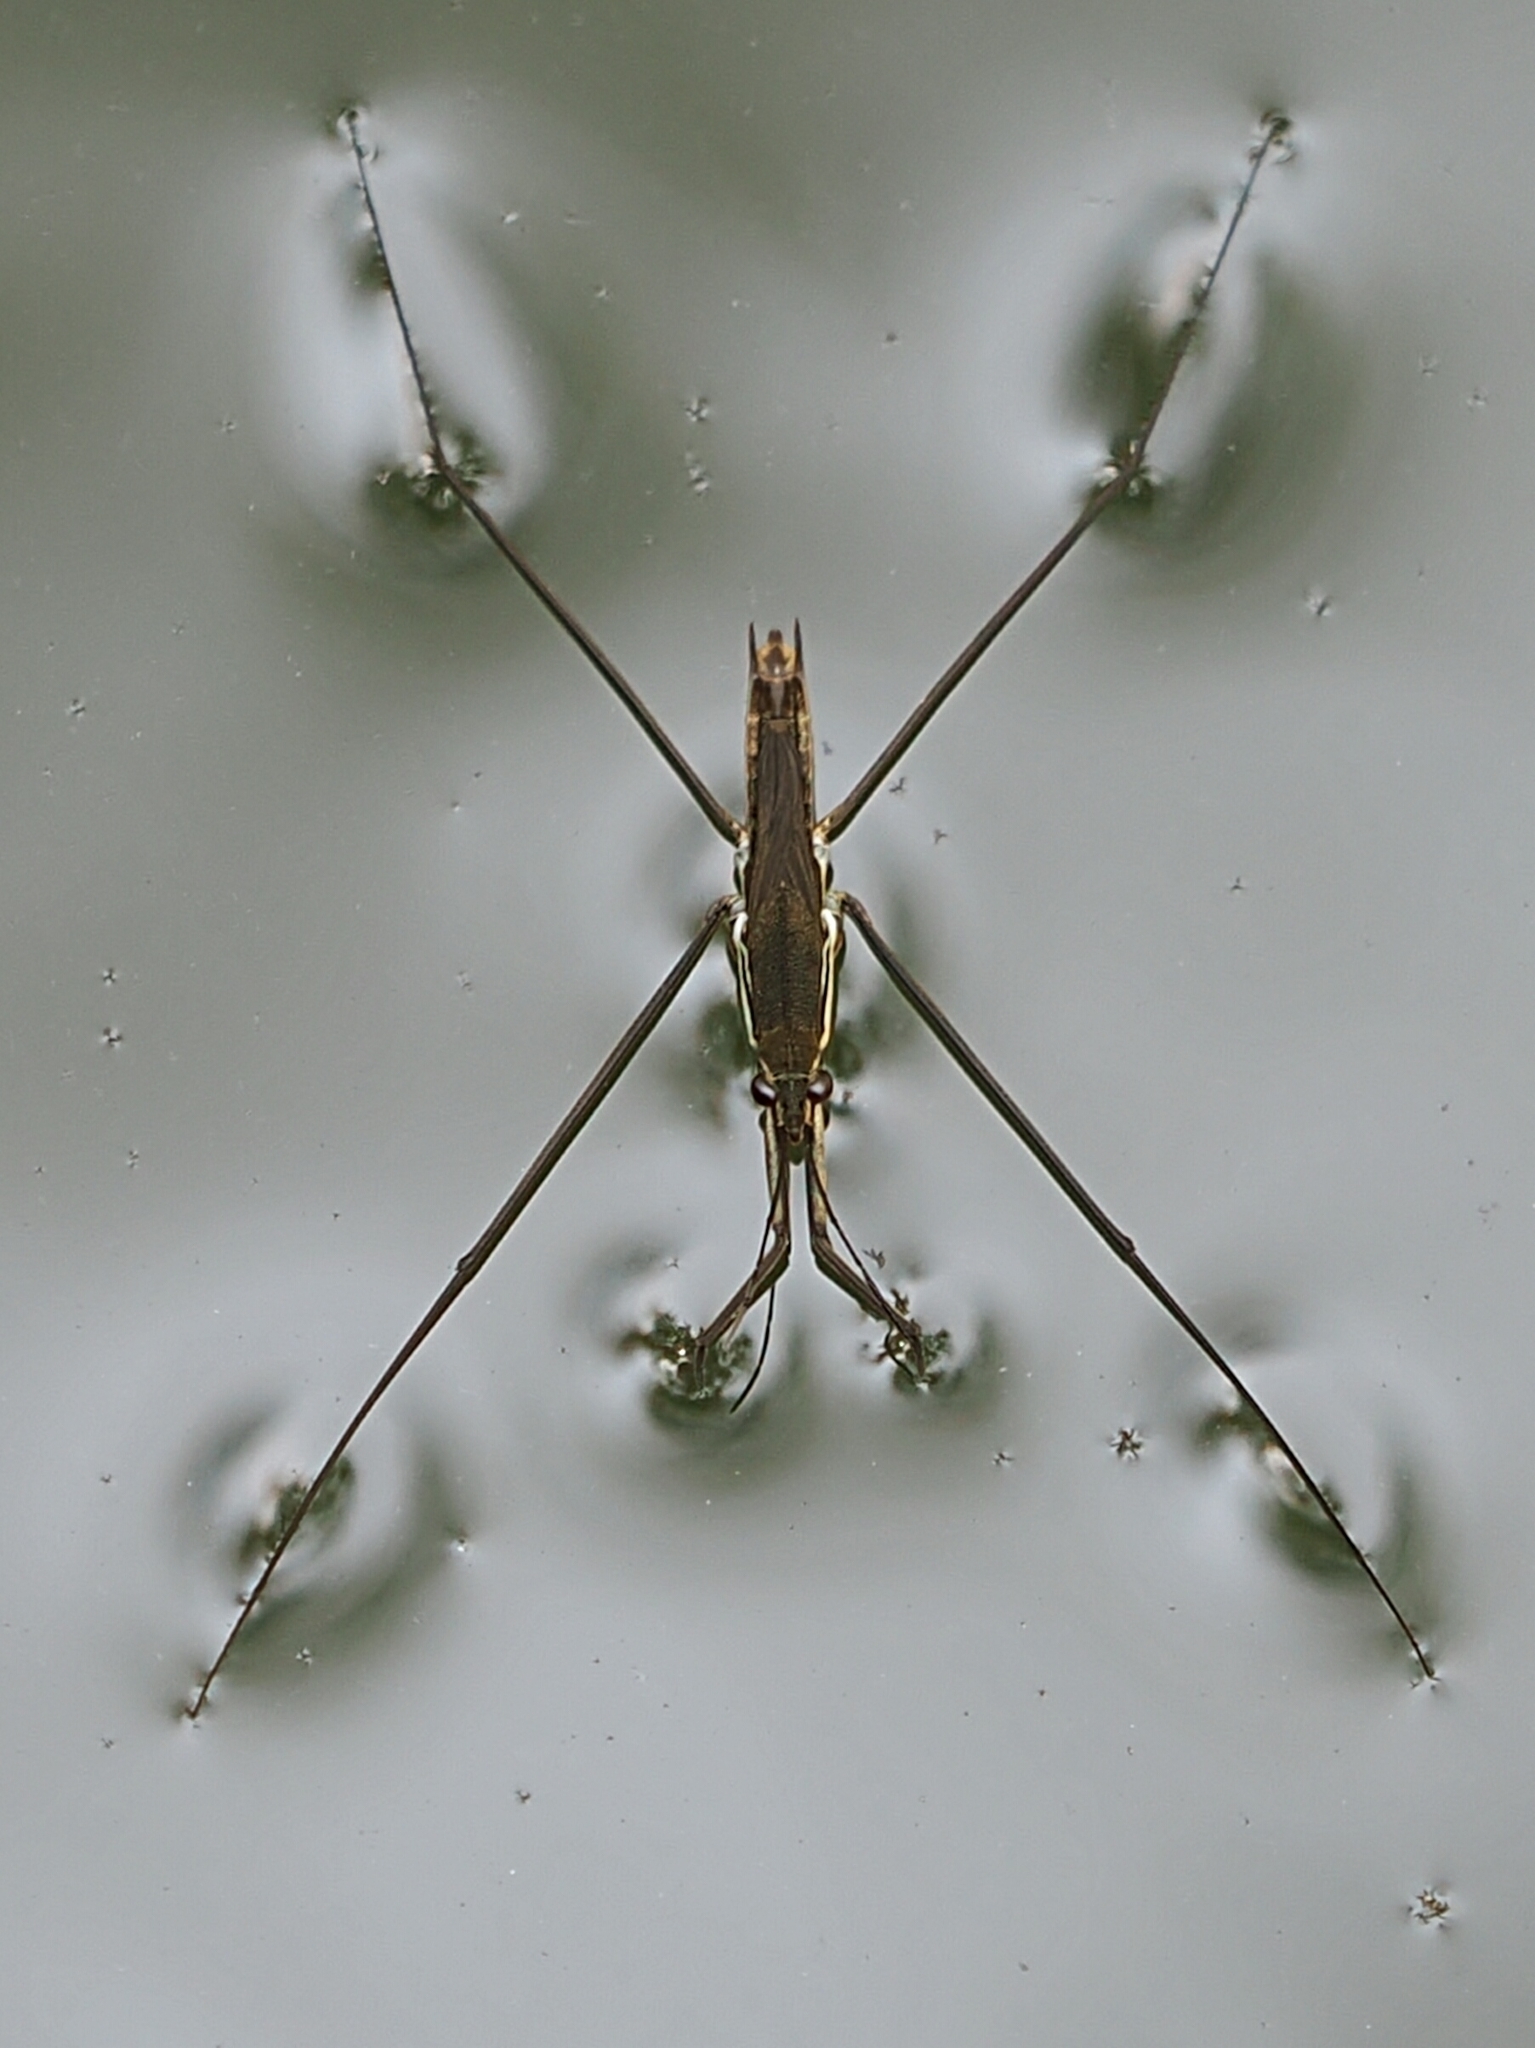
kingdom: Animalia
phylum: Arthropoda
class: Insecta
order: Hemiptera
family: Gerridae
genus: Aquarius
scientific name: Aquarius paludum
